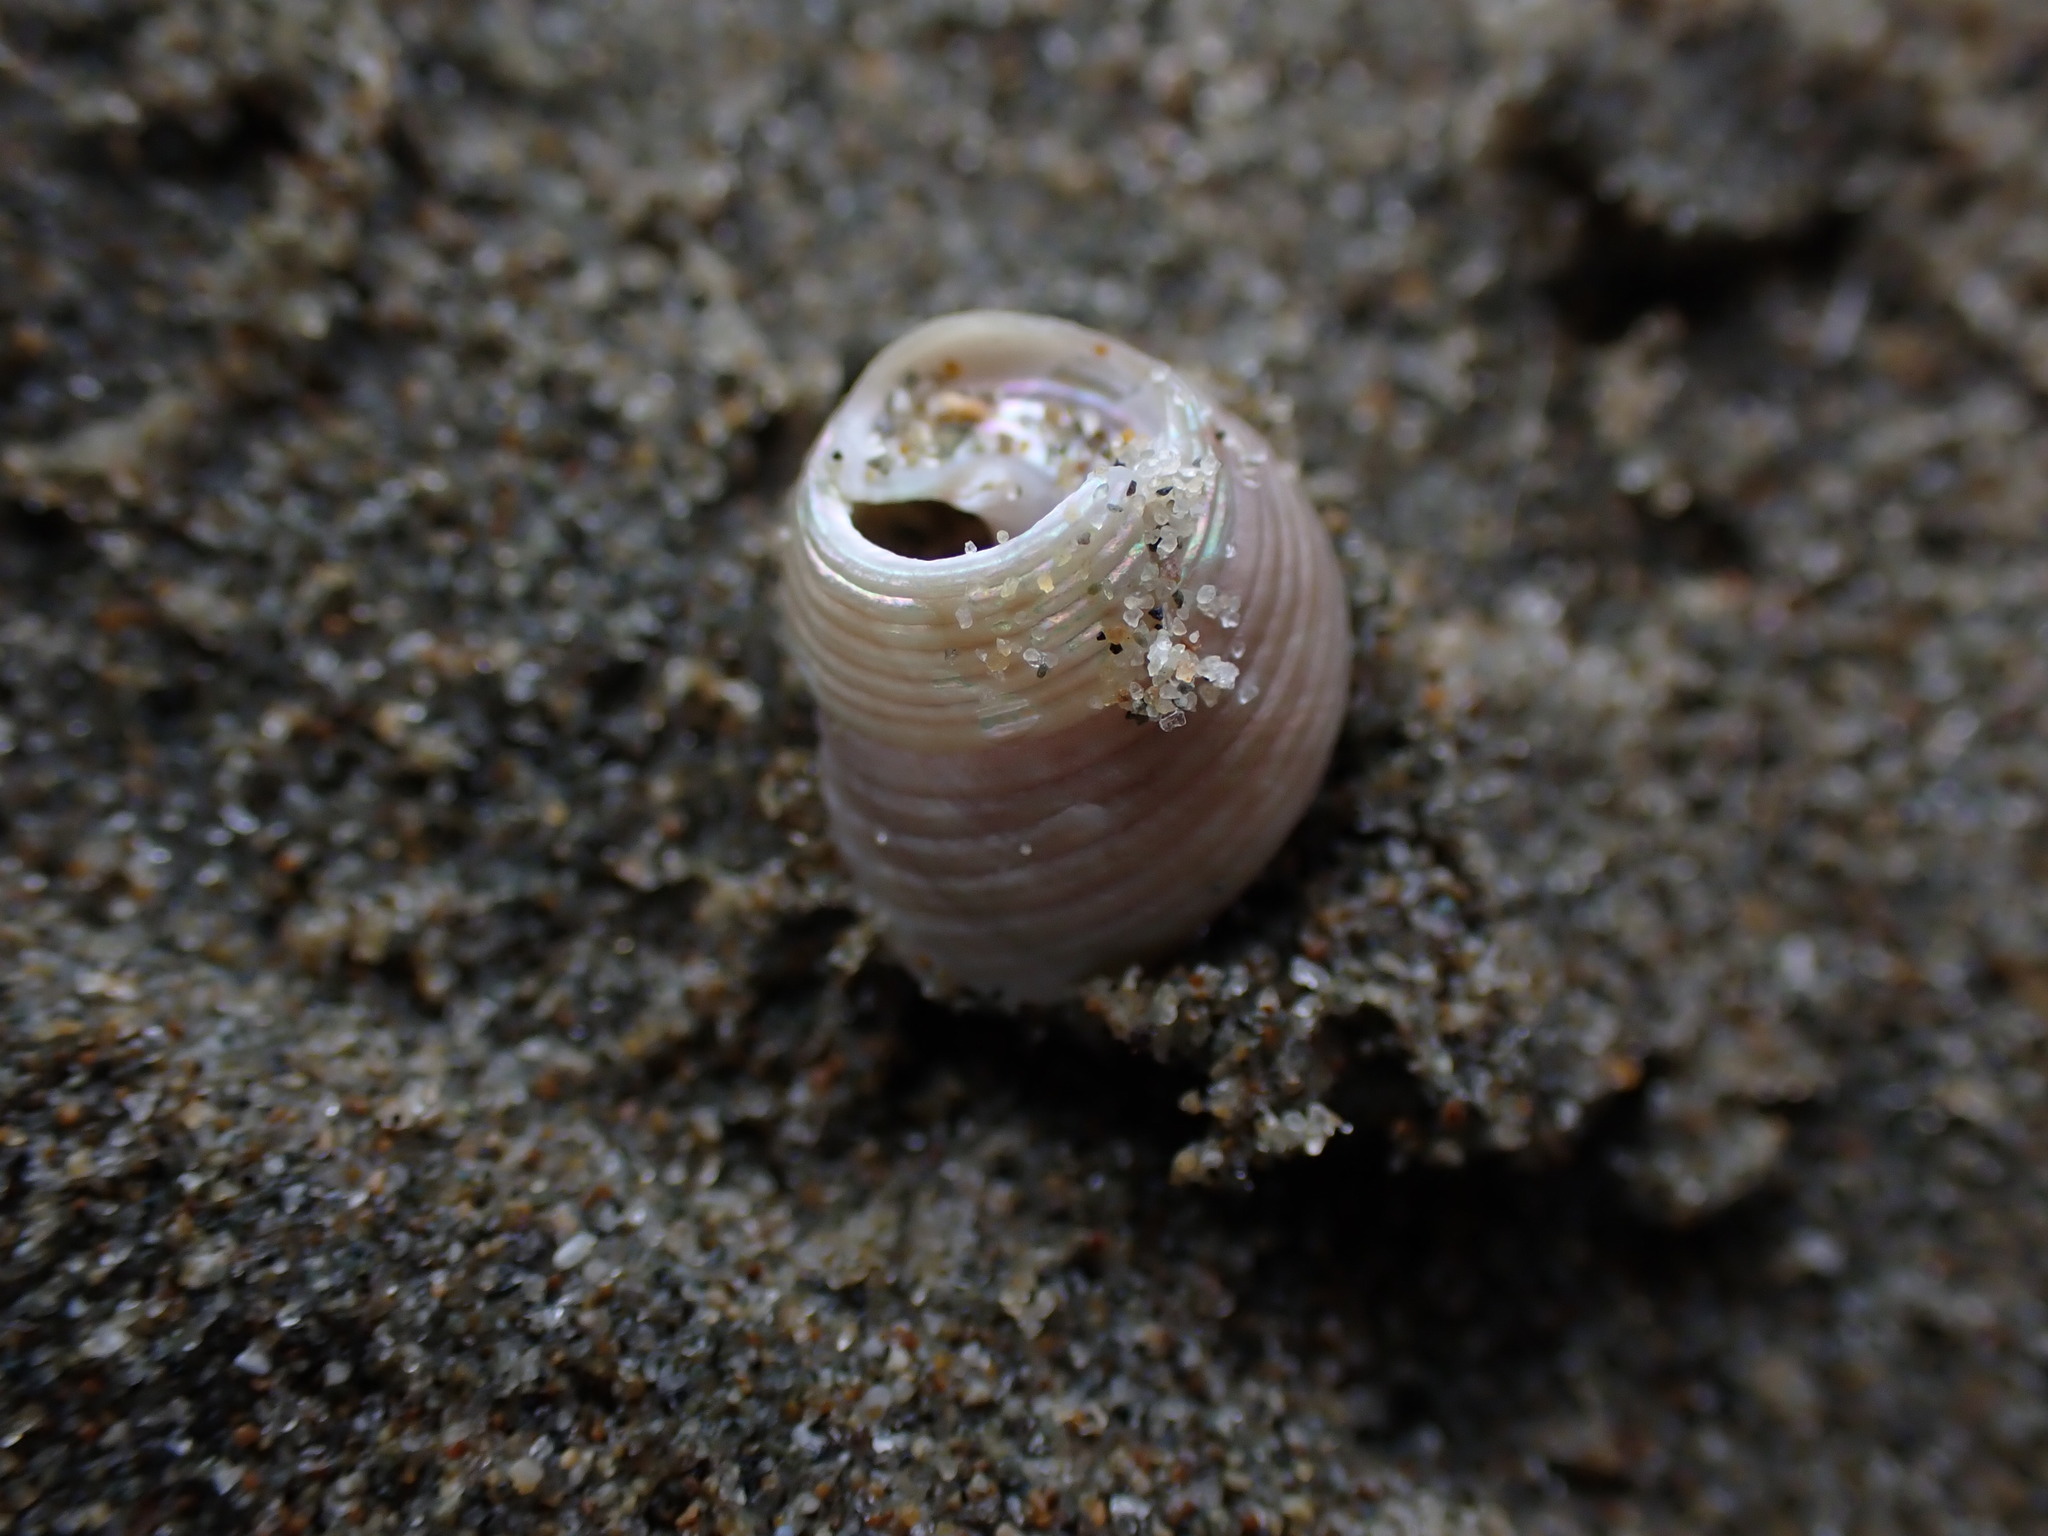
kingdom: Animalia
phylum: Mollusca
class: Gastropoda
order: Trochida
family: Trochidae
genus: Micrelenchus
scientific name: Micrelenchus sanguineus
